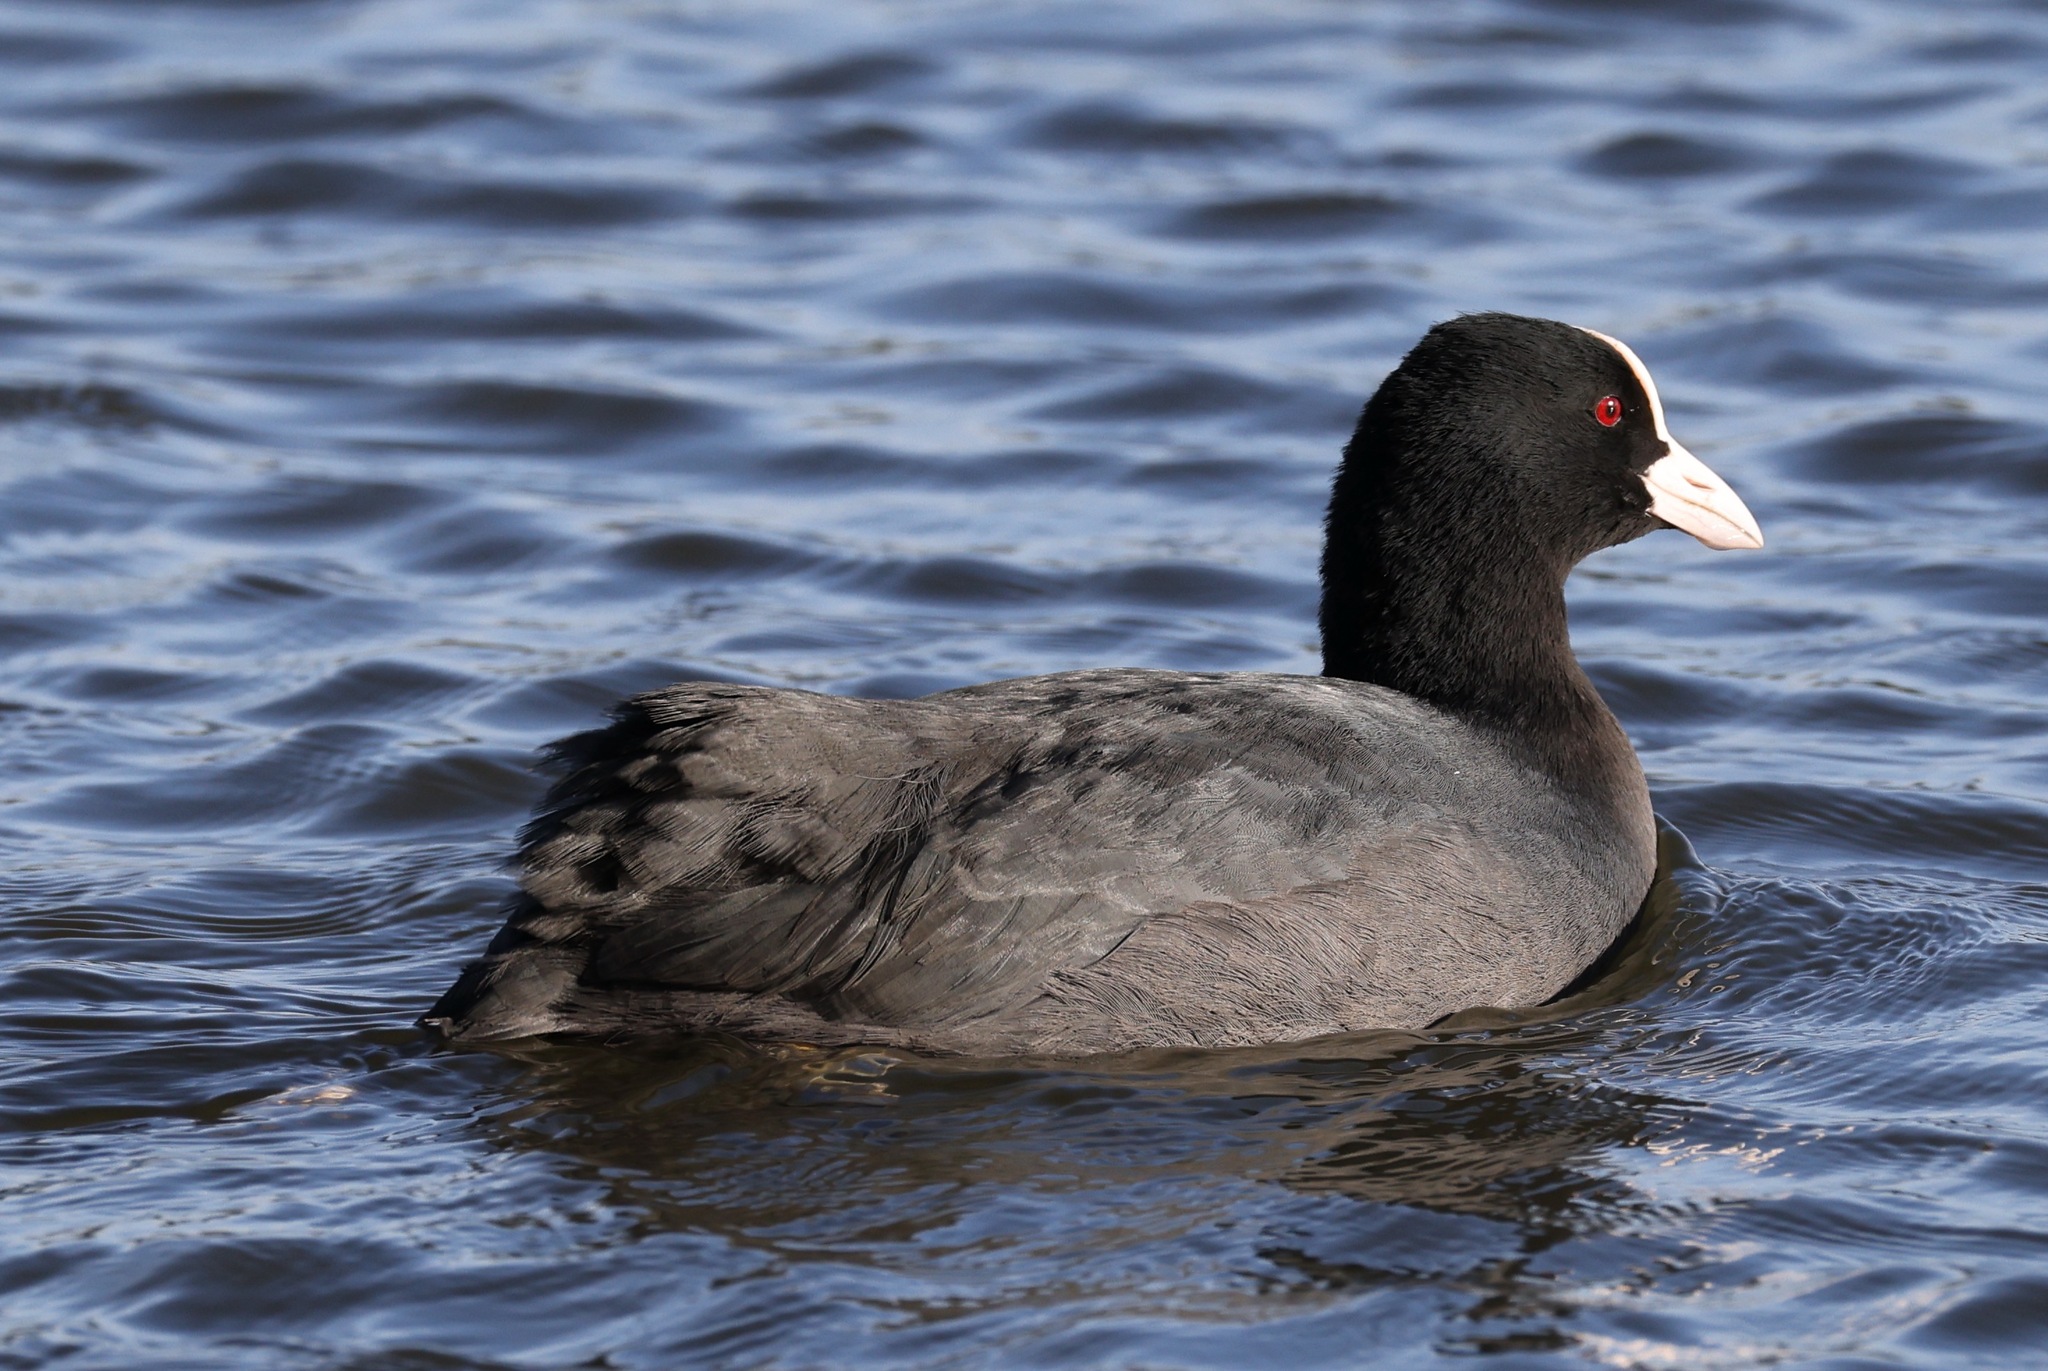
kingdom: Animalia
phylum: Chordata
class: Aves
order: Gruiformes
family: Rallidae
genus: Fulica
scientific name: Fulica atra
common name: Eurasian coot
